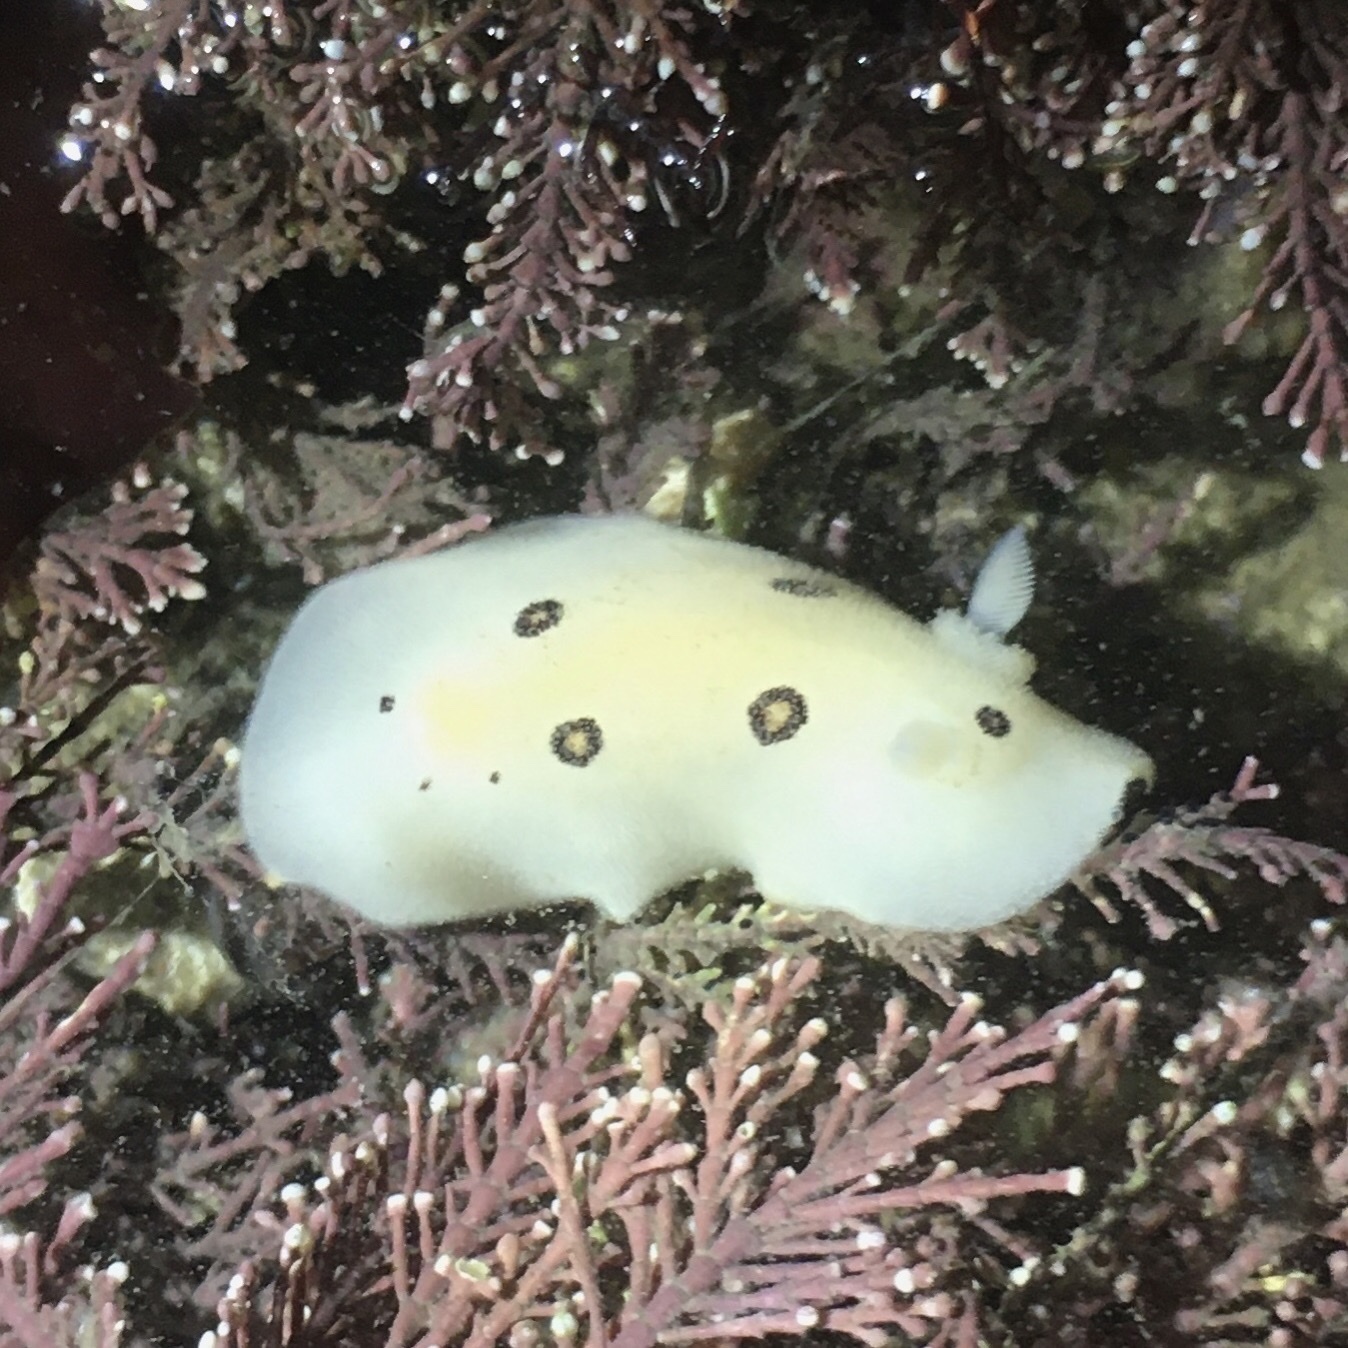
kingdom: Animalia
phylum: Mollusca
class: Gastropoda
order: Nudibranchia
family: Discodorididae
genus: Diaulula
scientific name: Diaulula sandiegensis
